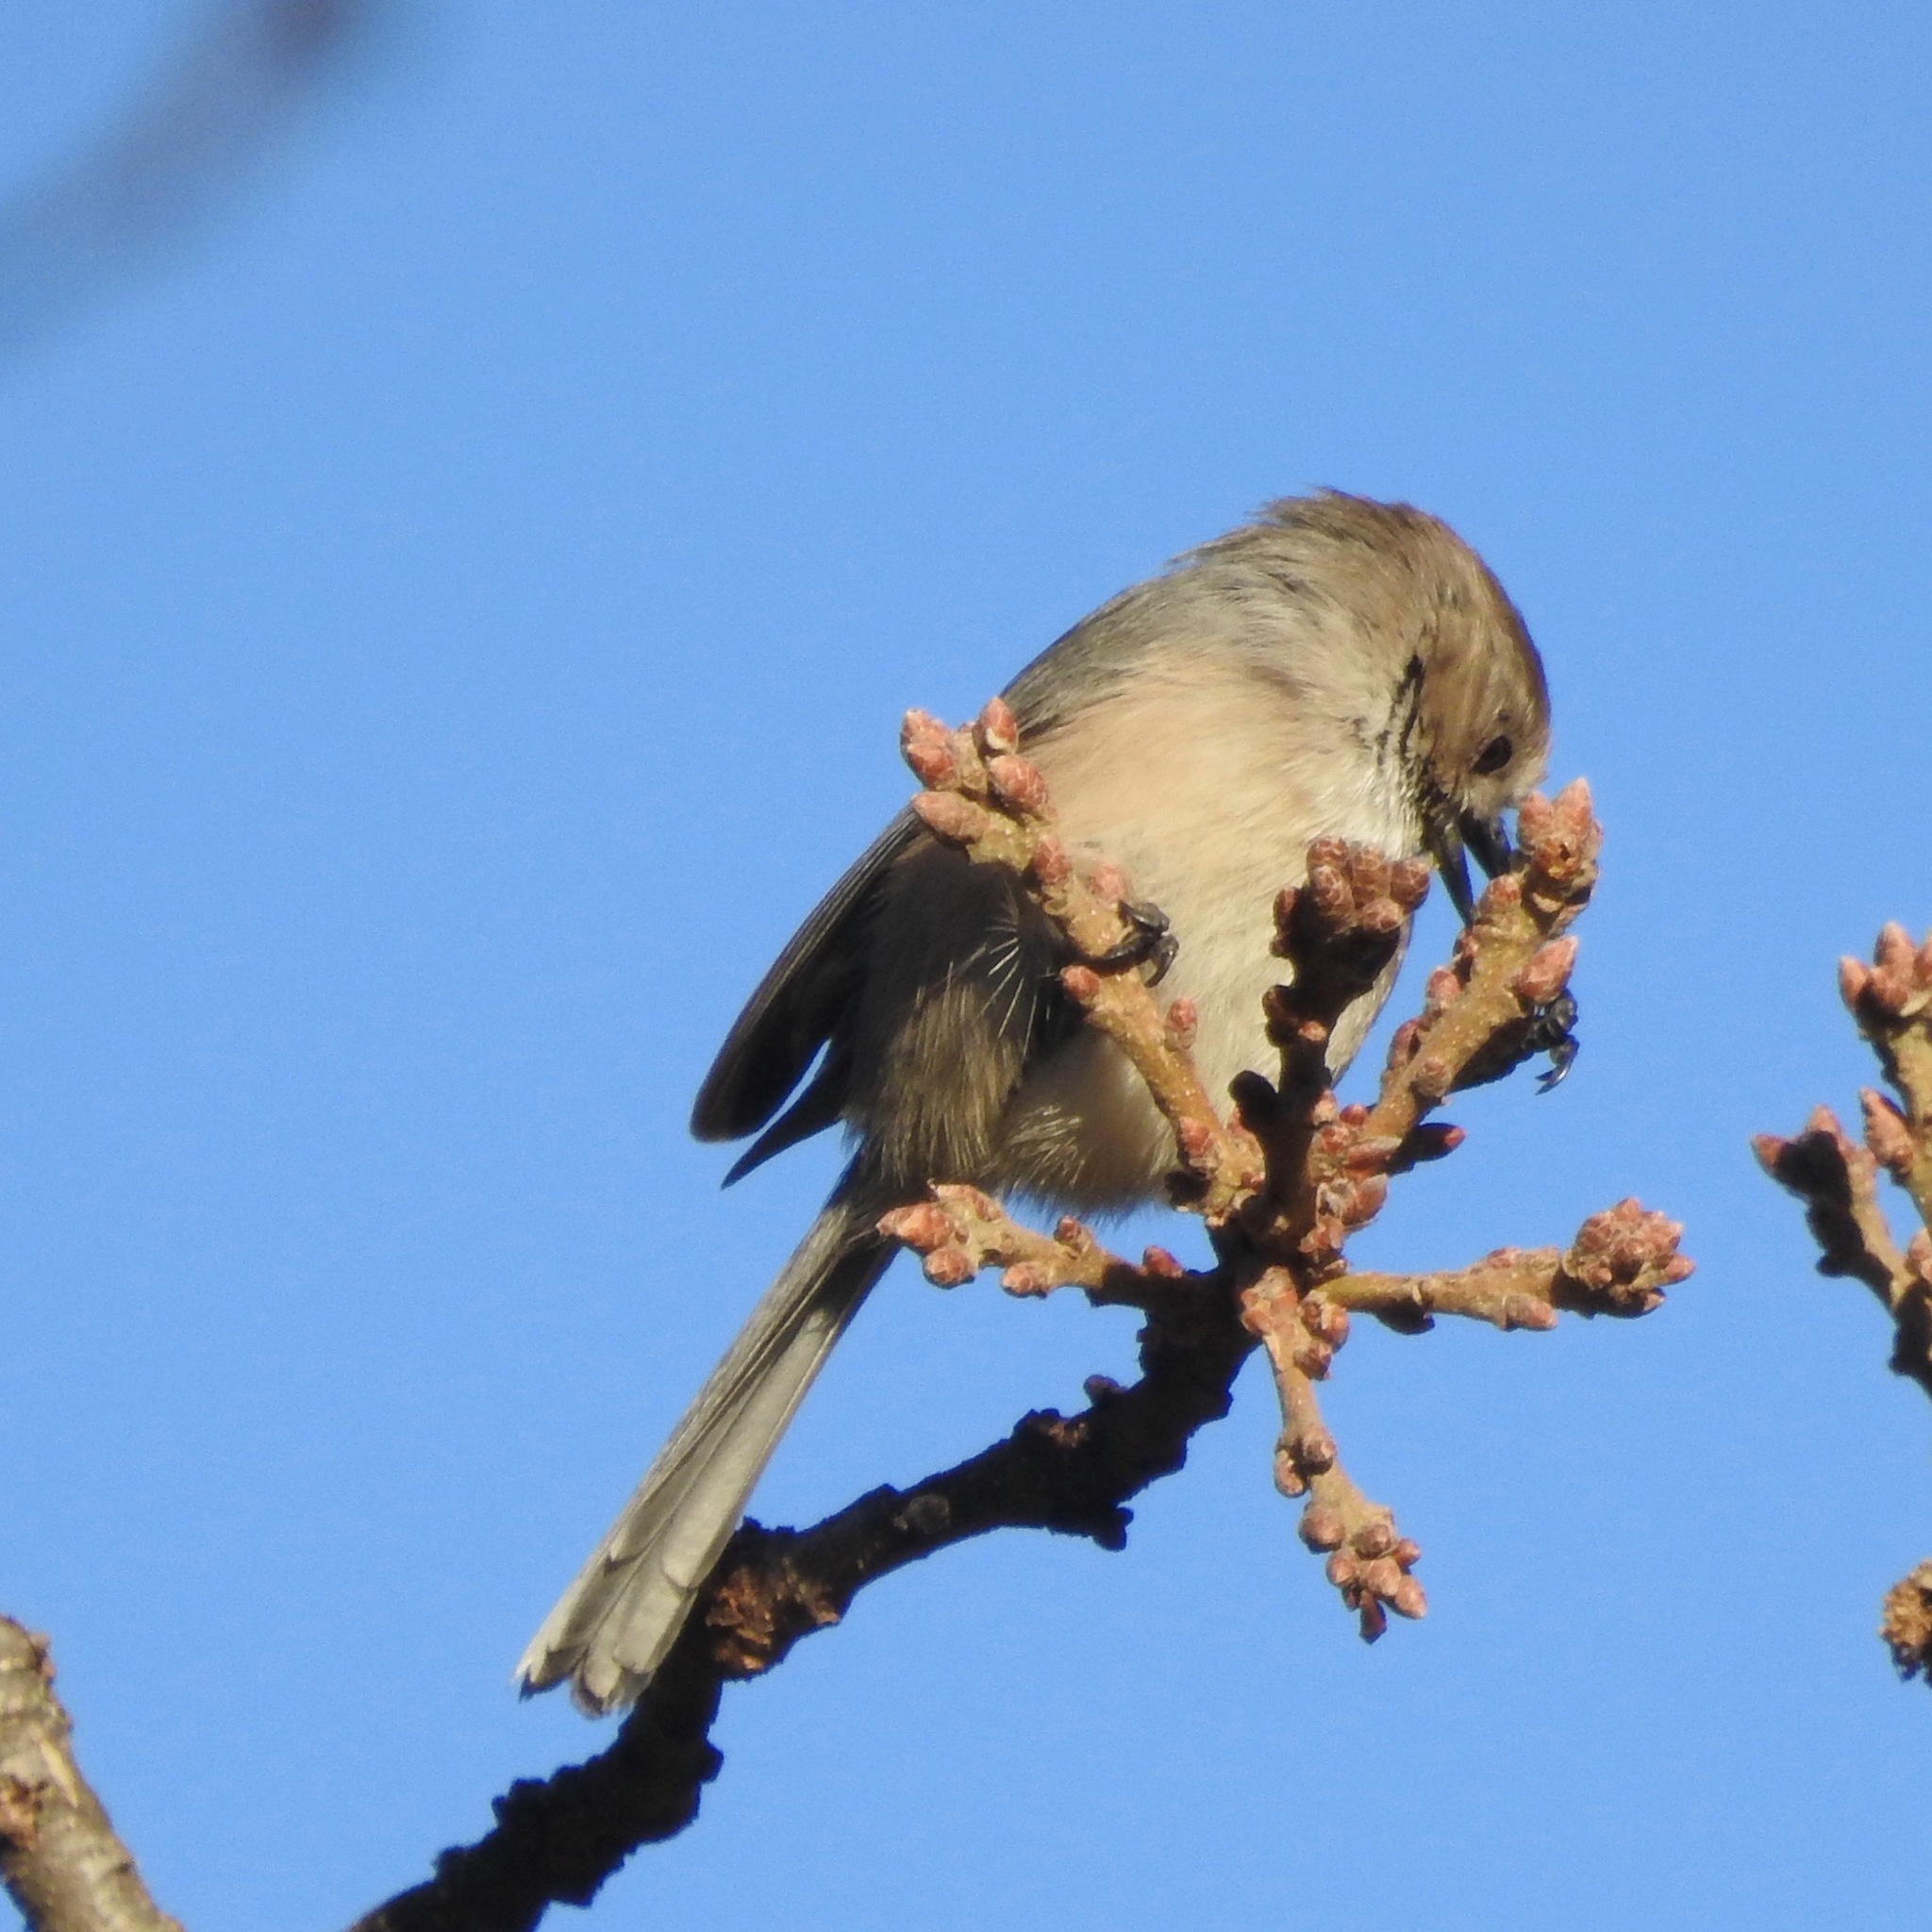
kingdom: Animalia
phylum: Chordata
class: Aves
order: Passeriformes
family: Aegithalidae
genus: Psaltriparus
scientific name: Psaltriparus minimus
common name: American bushtit
